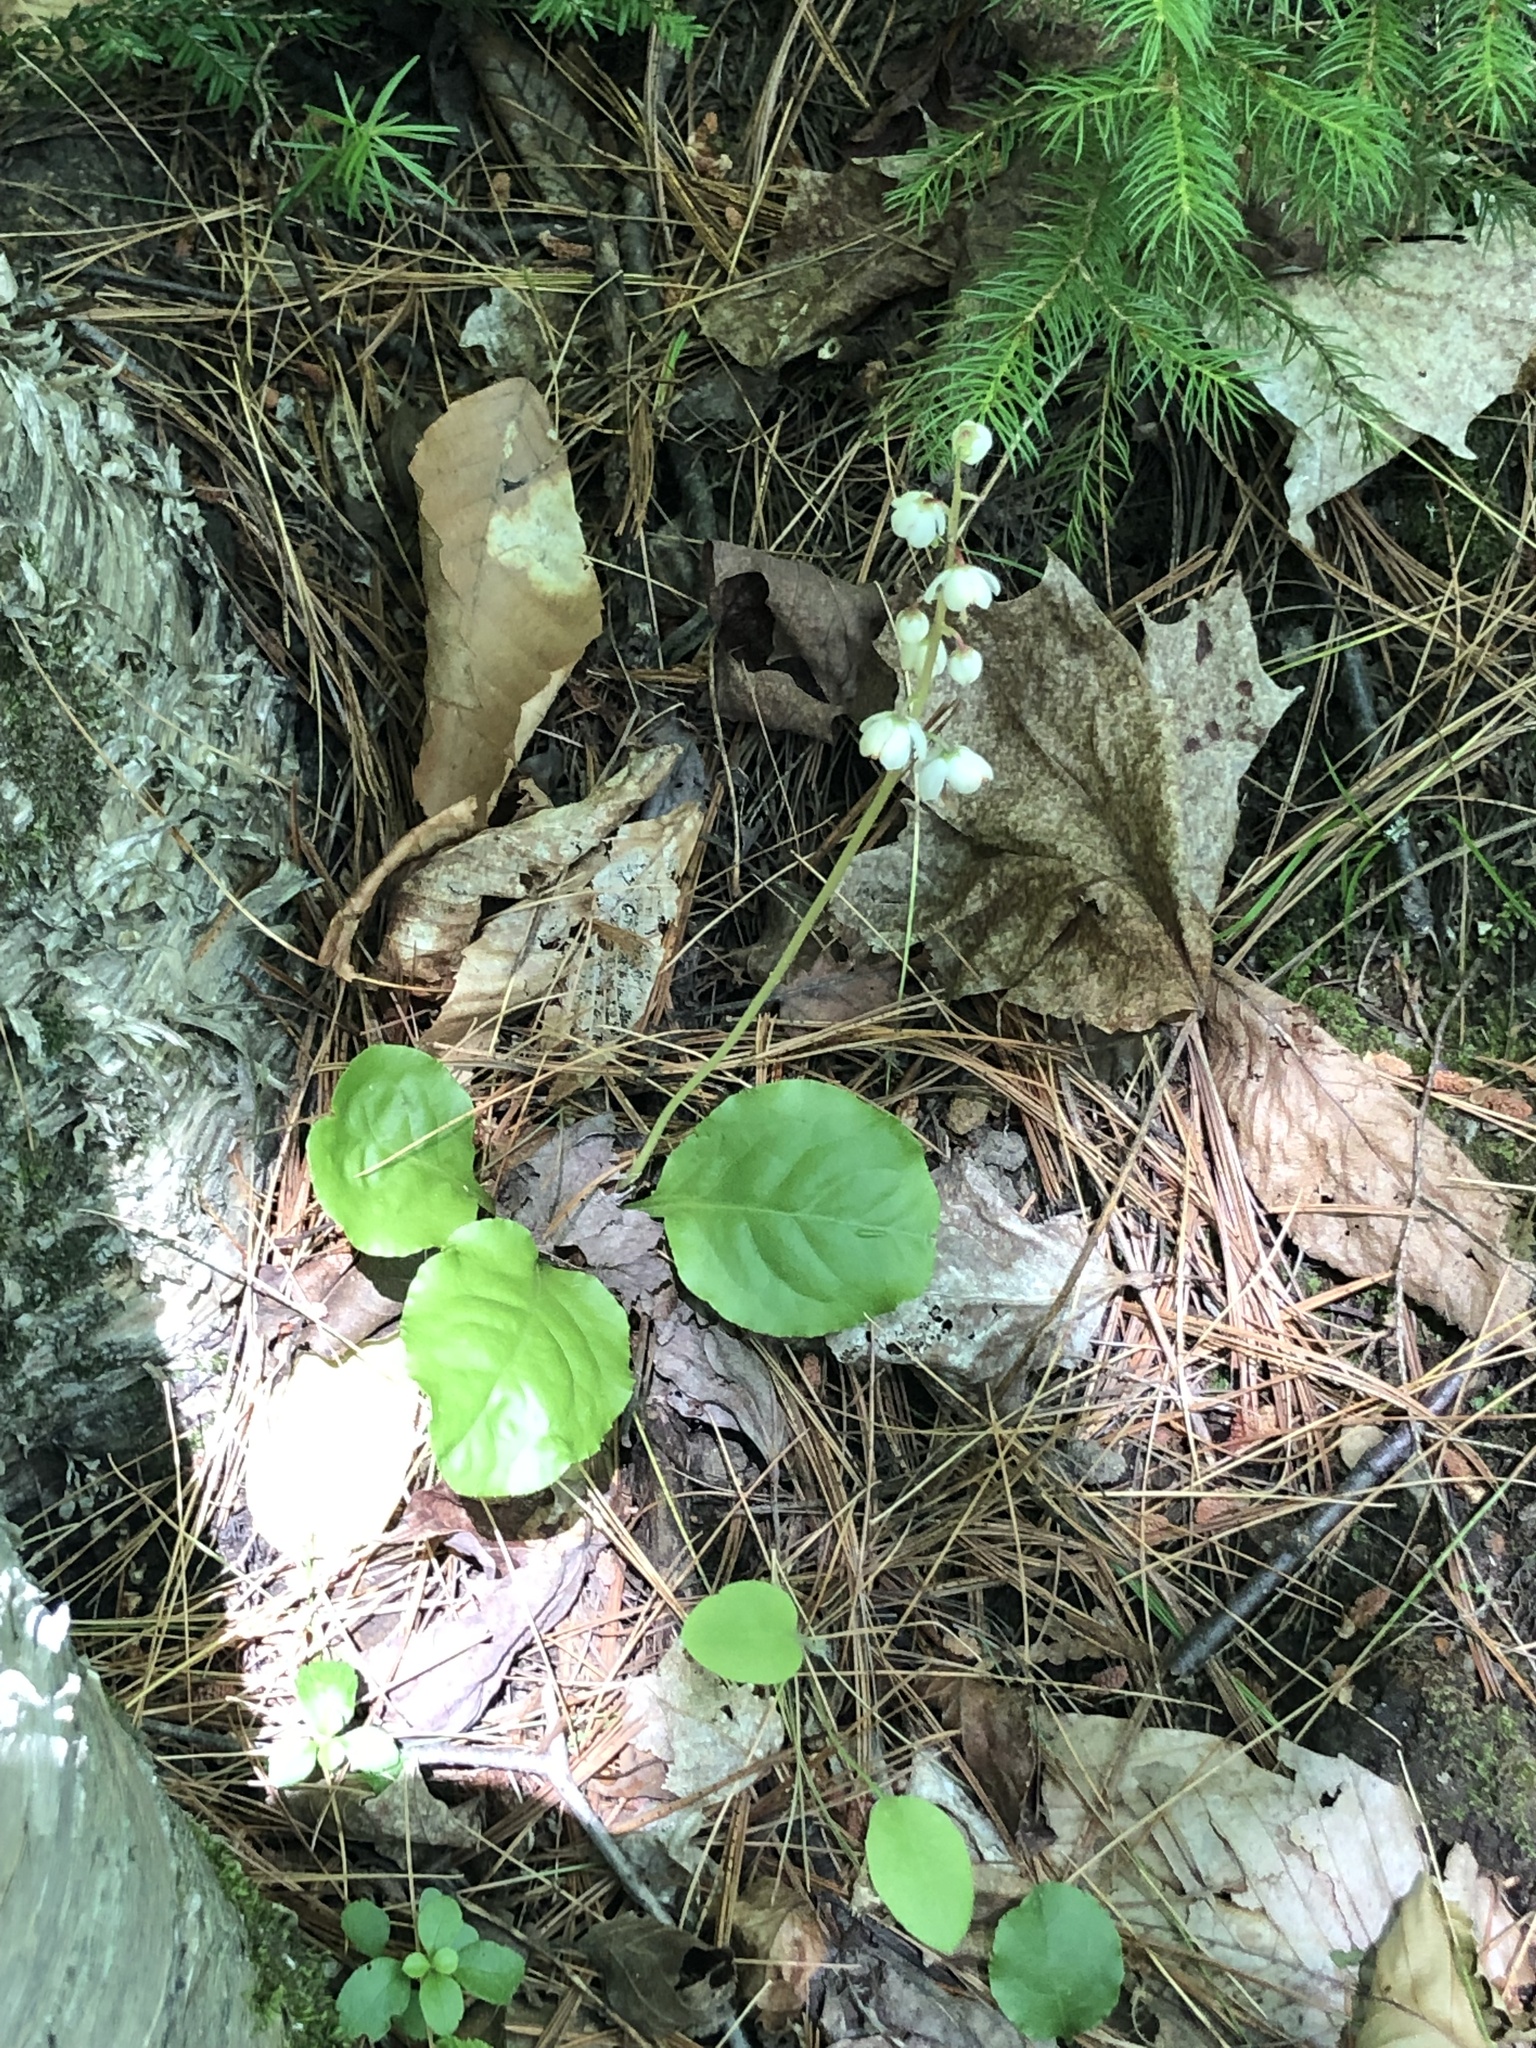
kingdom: Plantae
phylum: Tracheophyta
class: Magnoliopsida
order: Ericales
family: Ericaceae
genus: Pyrola
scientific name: Pyrola elliptica
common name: Shinleaf
